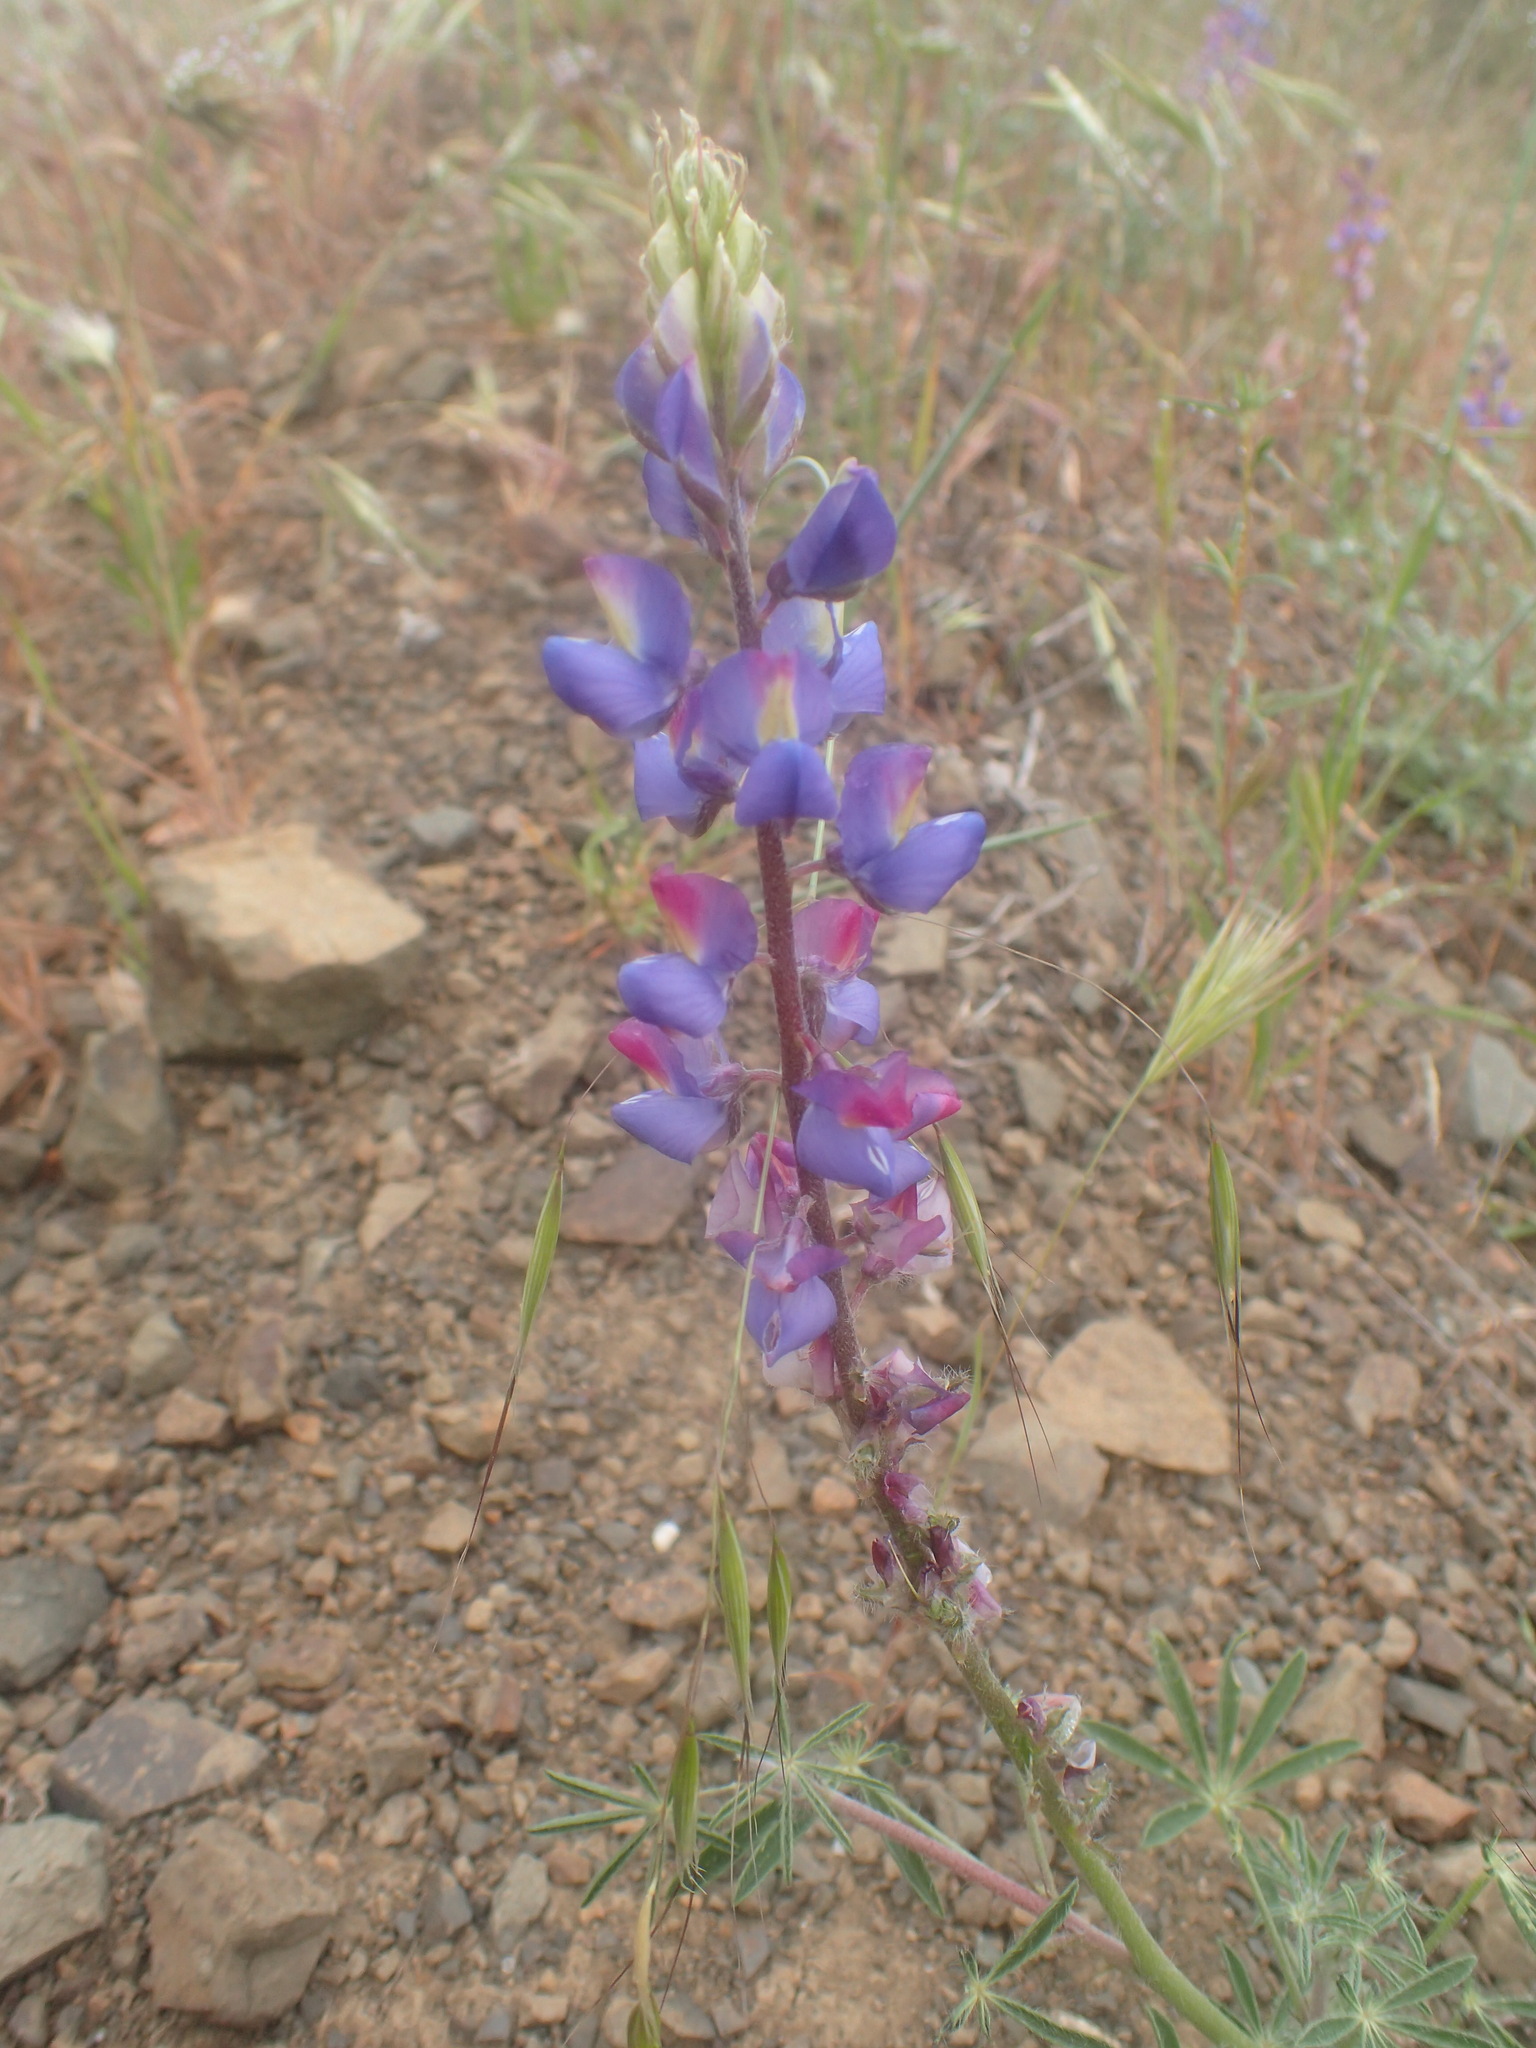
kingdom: Plantae
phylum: Tracheophyta
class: Magnoliopsida
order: Fabales
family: Fabaceae
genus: Lupinus
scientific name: Lupinus sparsiflorus
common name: Coulter's lupine
